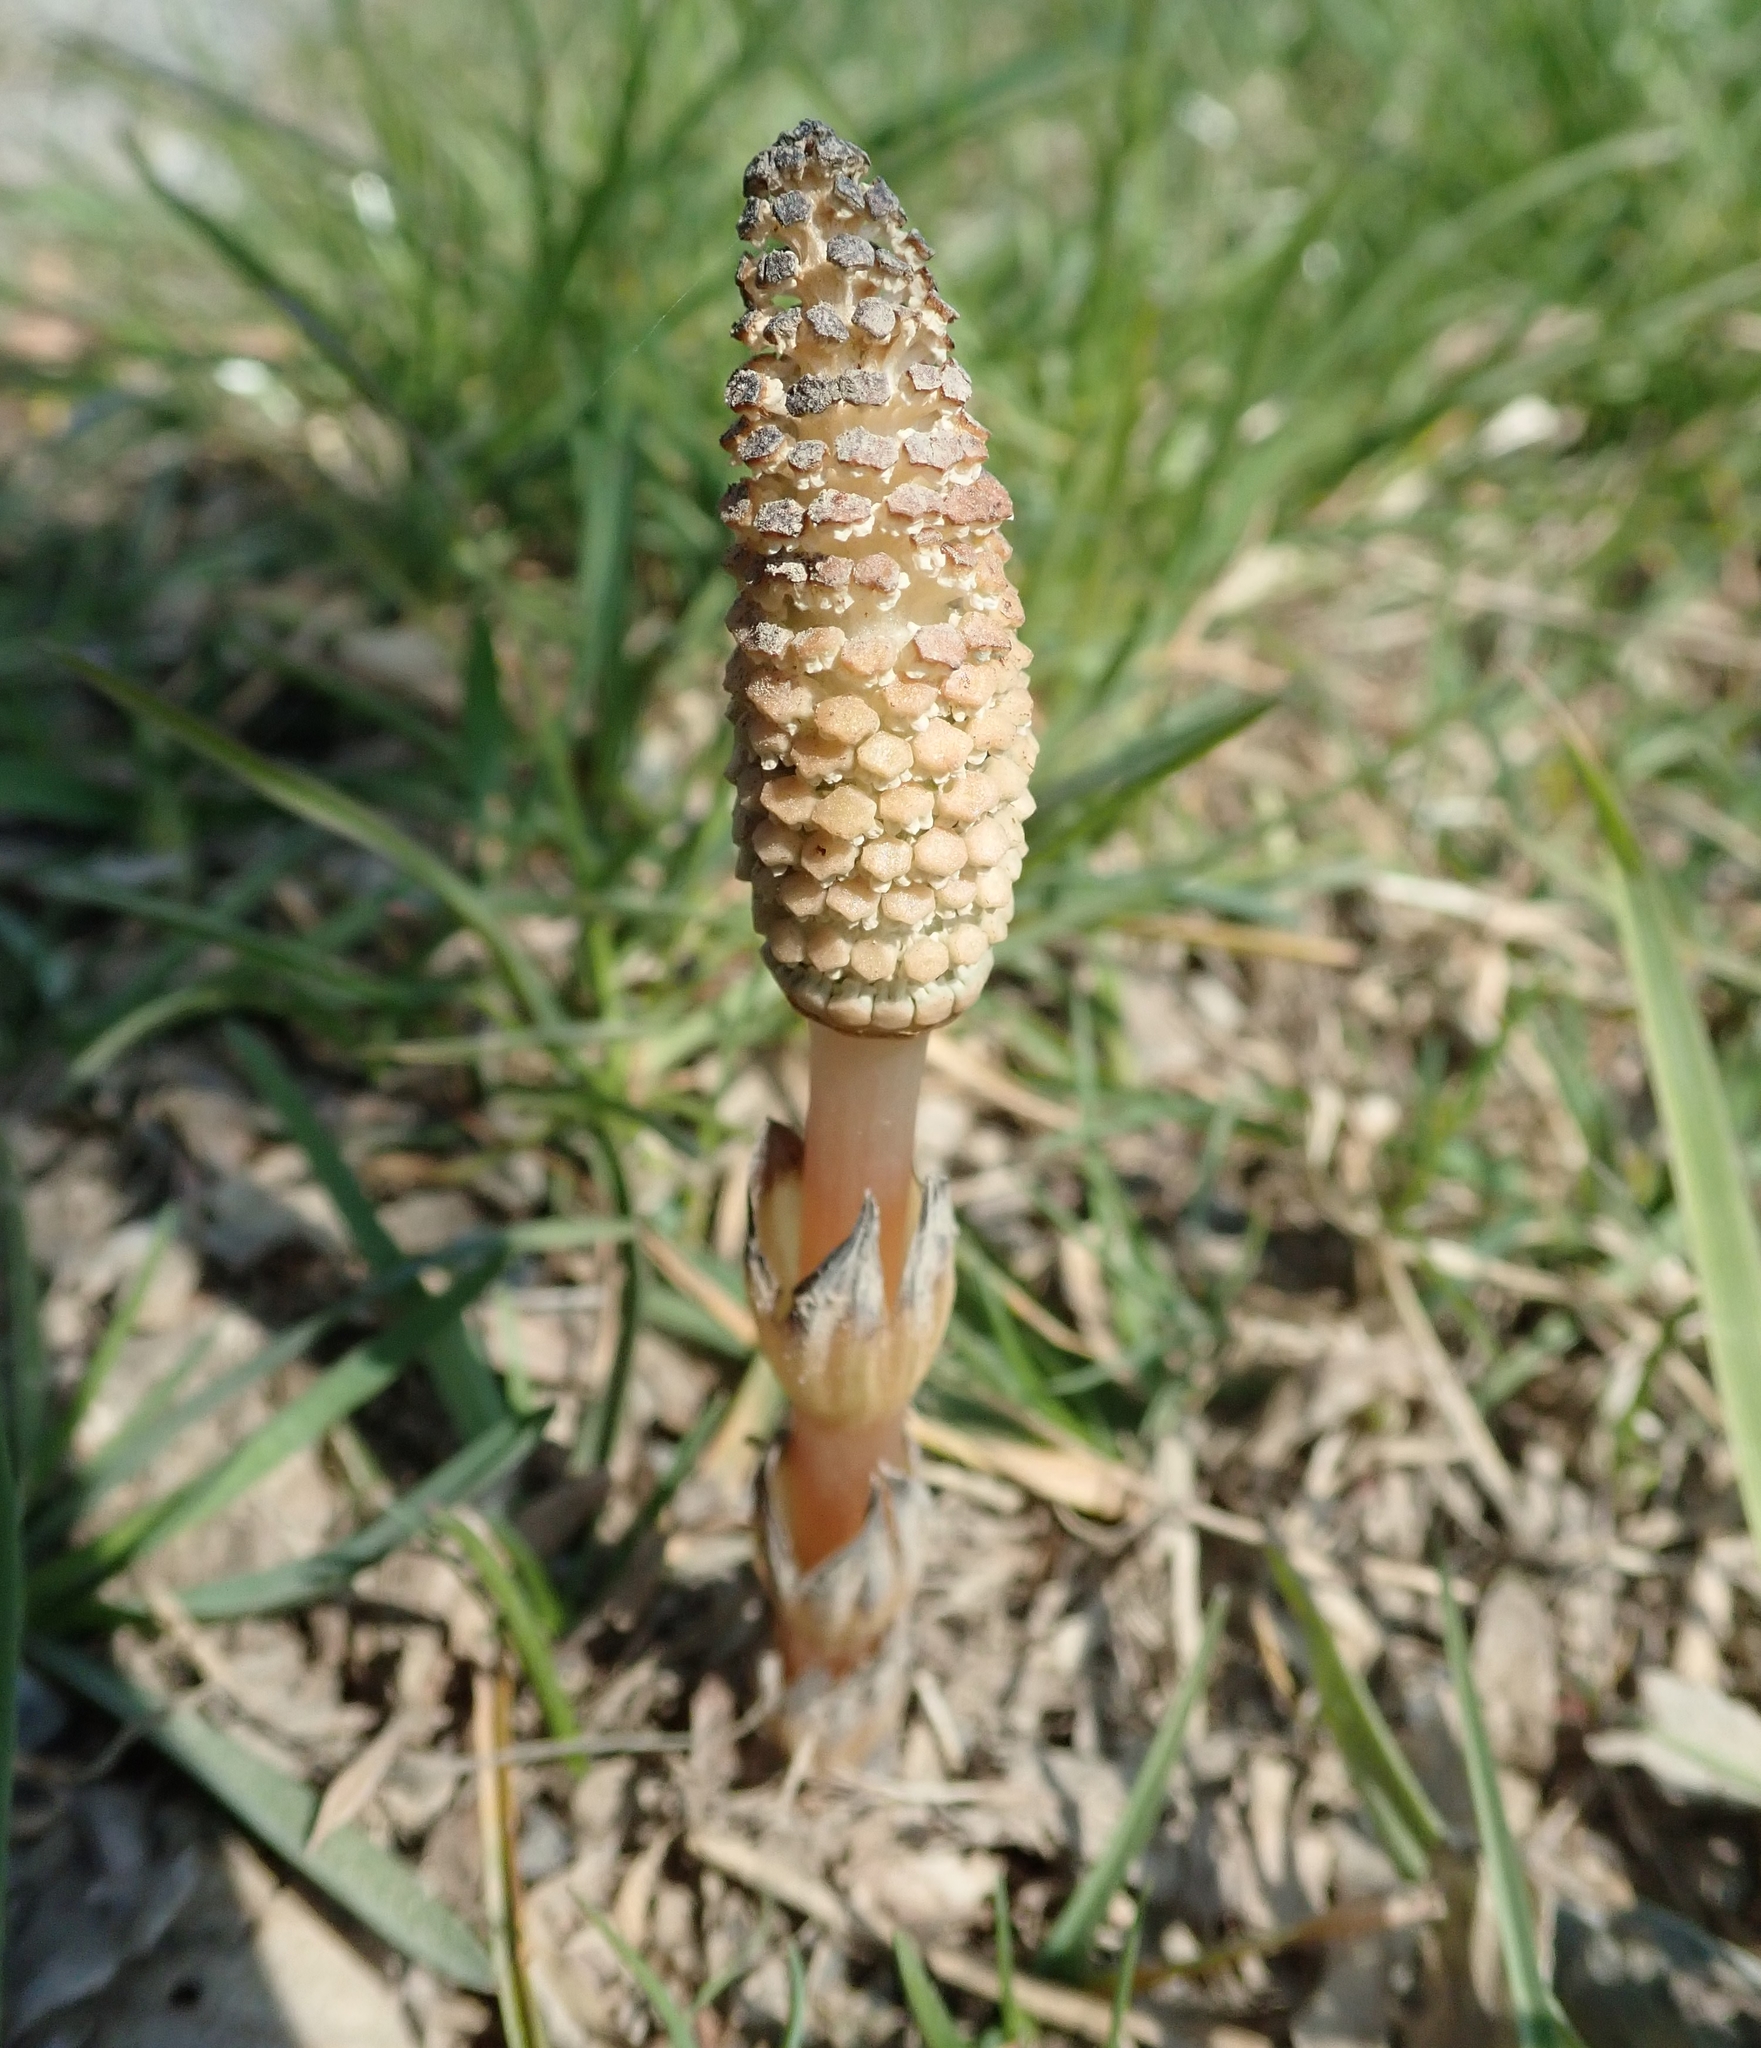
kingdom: Plantae
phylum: Tracheophyta
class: Polypodiopsida
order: Equisetales
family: Equisetaceae
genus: Equisetum
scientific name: Equisetum arvense
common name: Field horsetail
